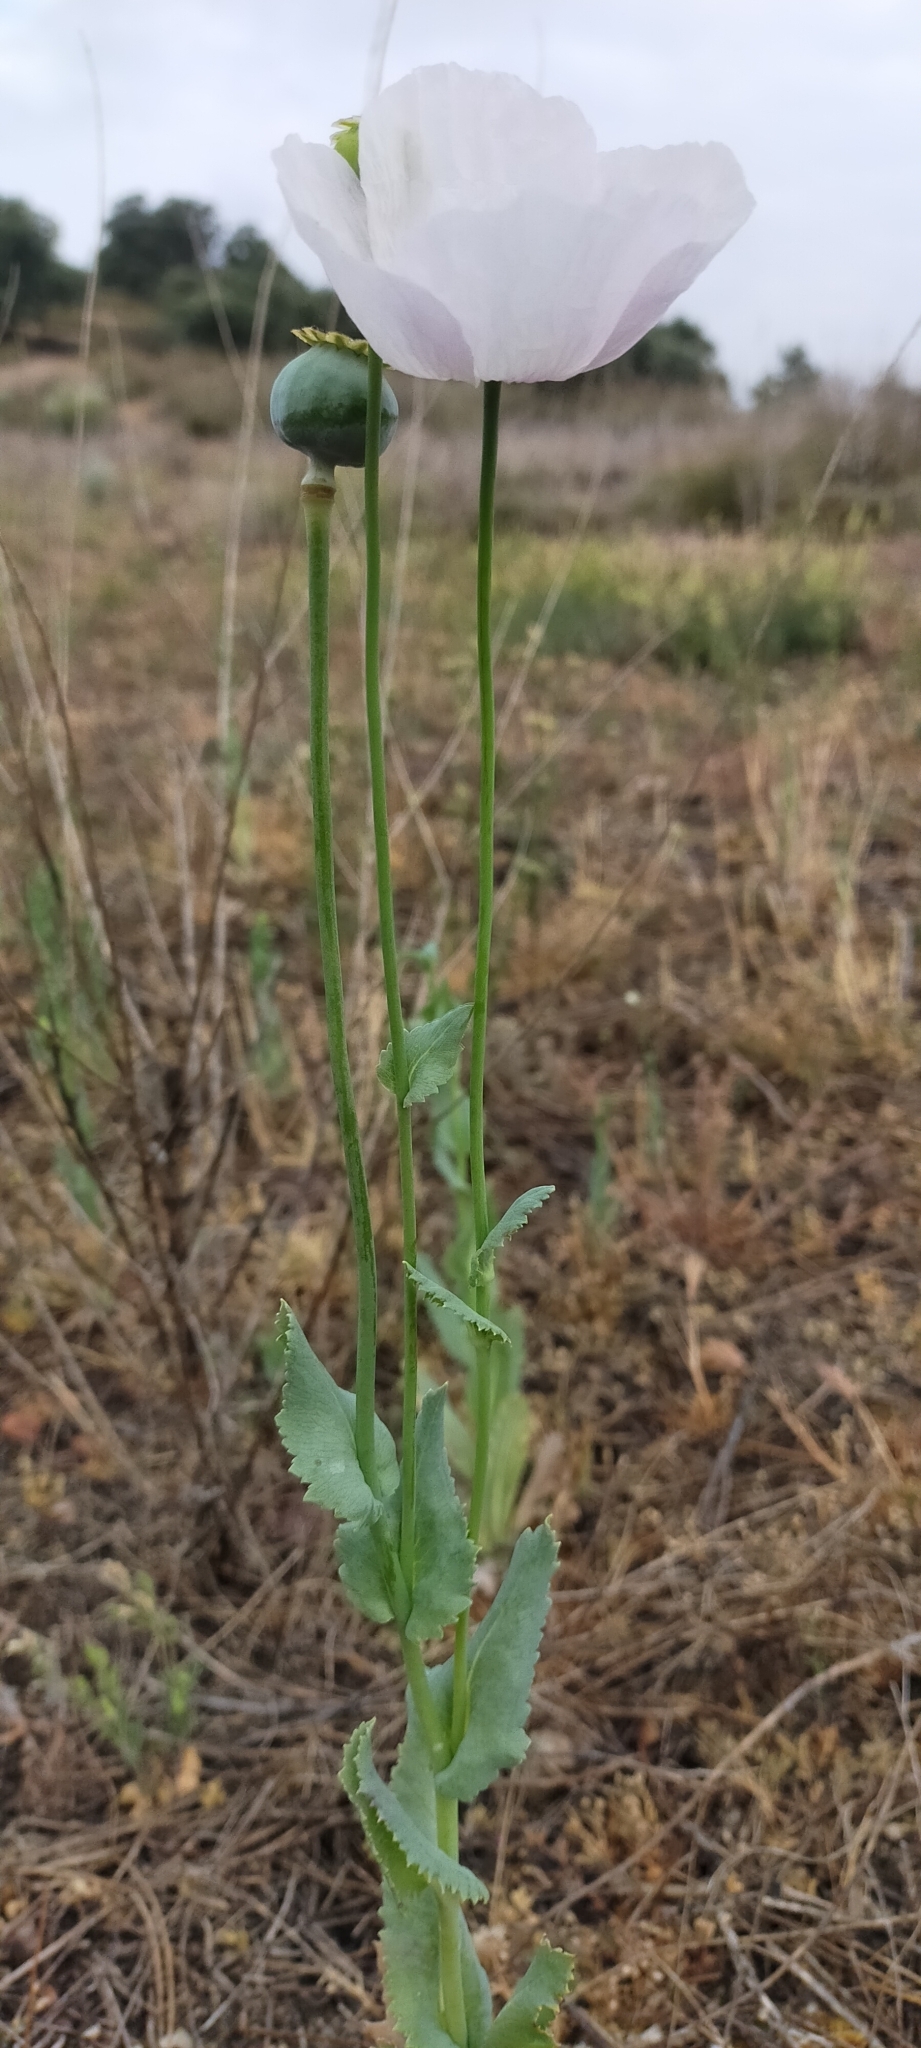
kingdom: Plantae
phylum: Tracheophyta
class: Magnoliopsida
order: Ranunculales
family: Papaveraceae
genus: Papaver
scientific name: Papaver somniferum
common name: Opium poppy
